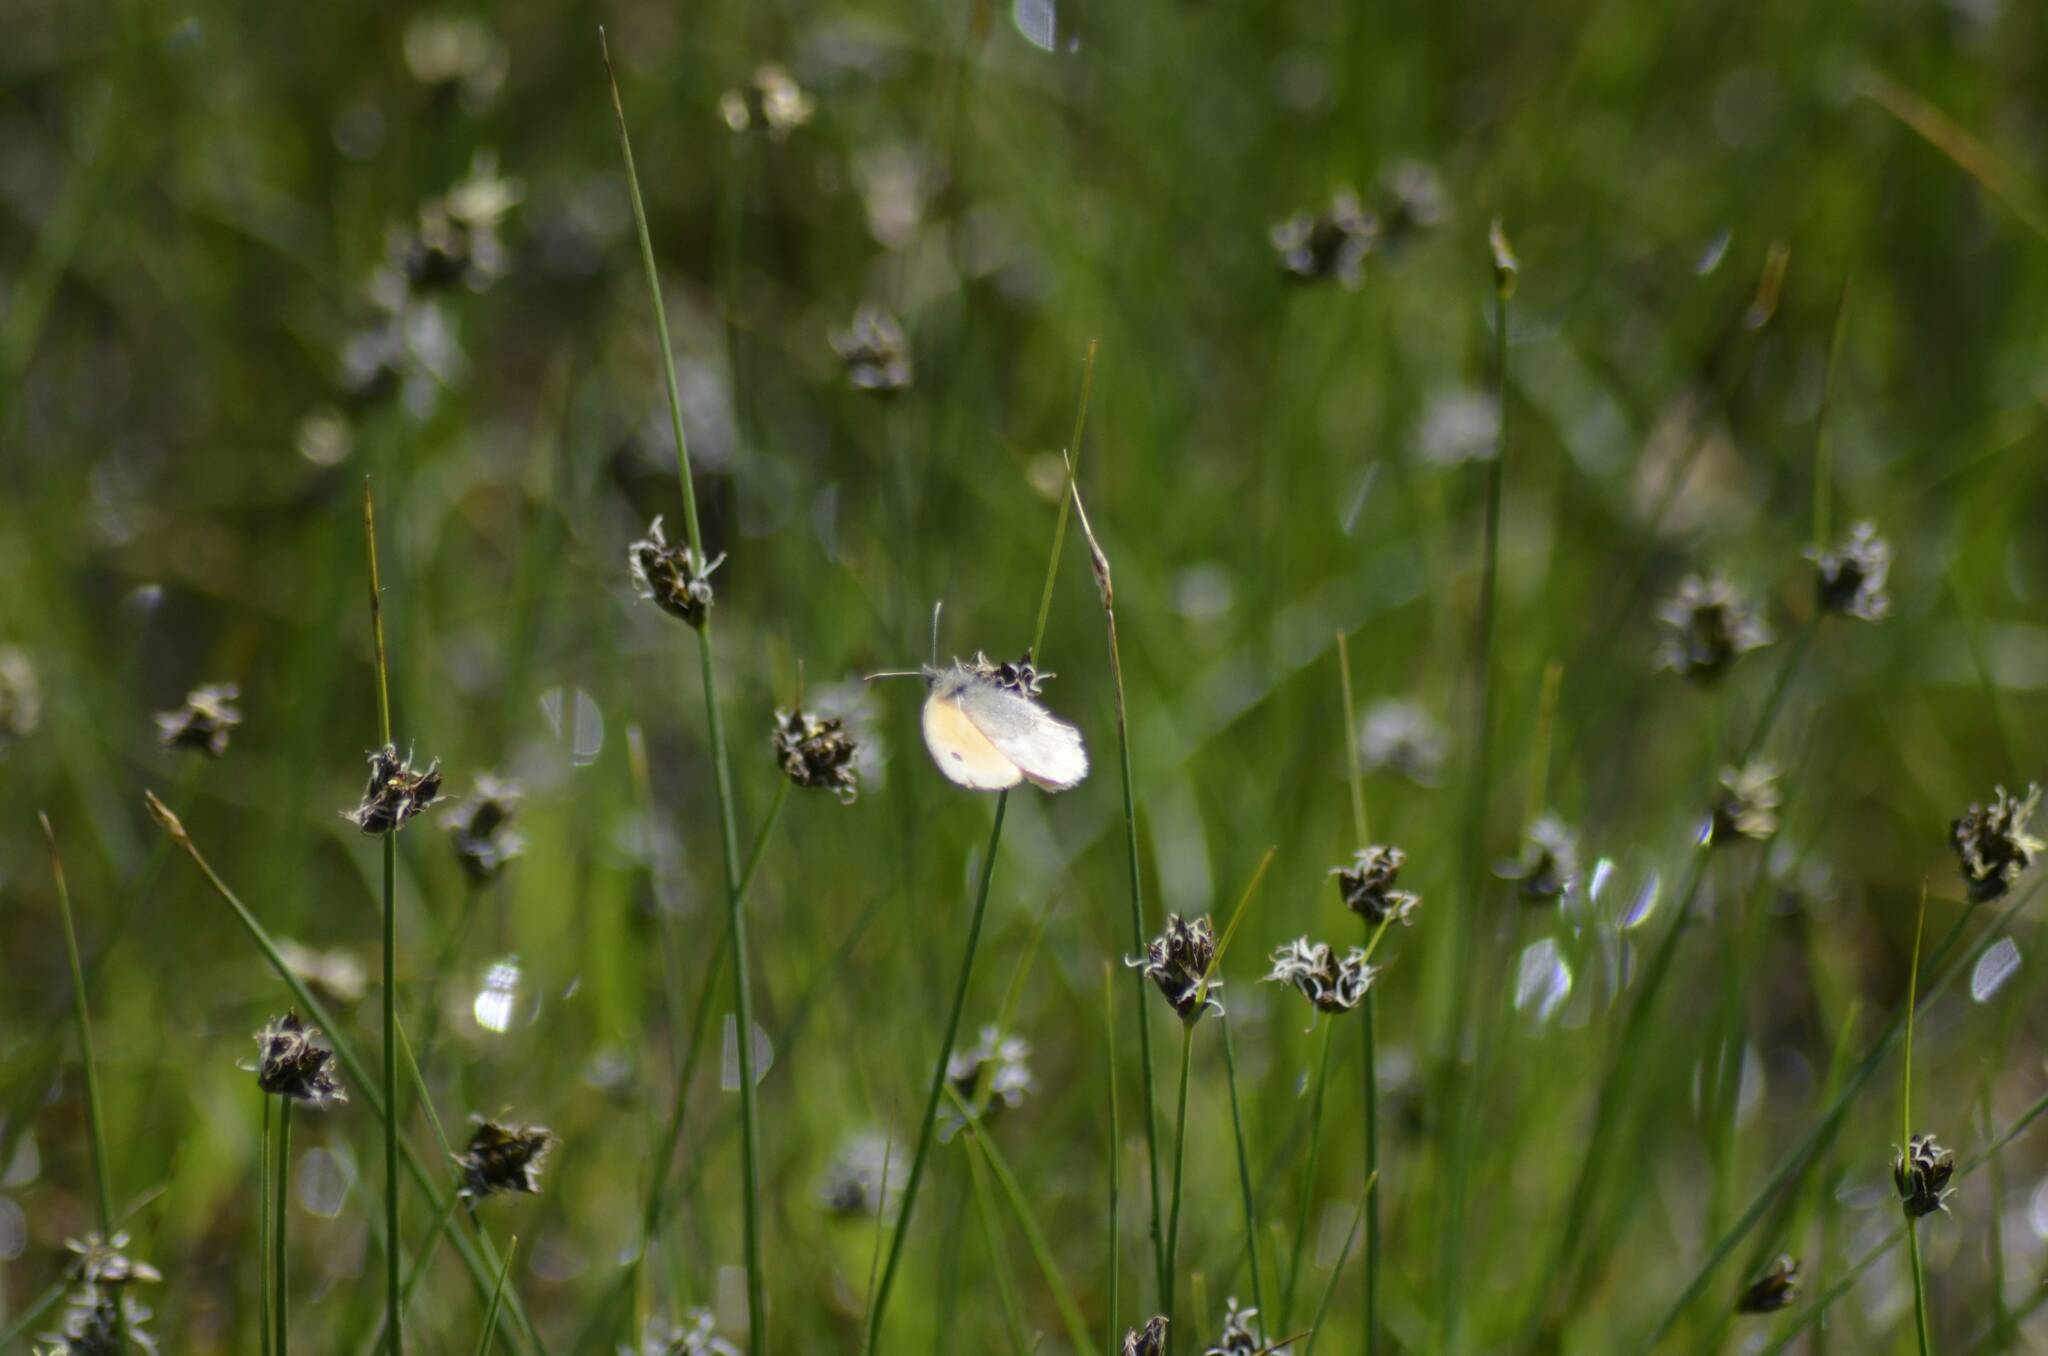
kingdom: Animalia
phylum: Arthropoda
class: Insecta
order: Lepidoptera
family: Nymphalidae
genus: Coenonympha
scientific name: Coenonympha pamphilus
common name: Small heath
